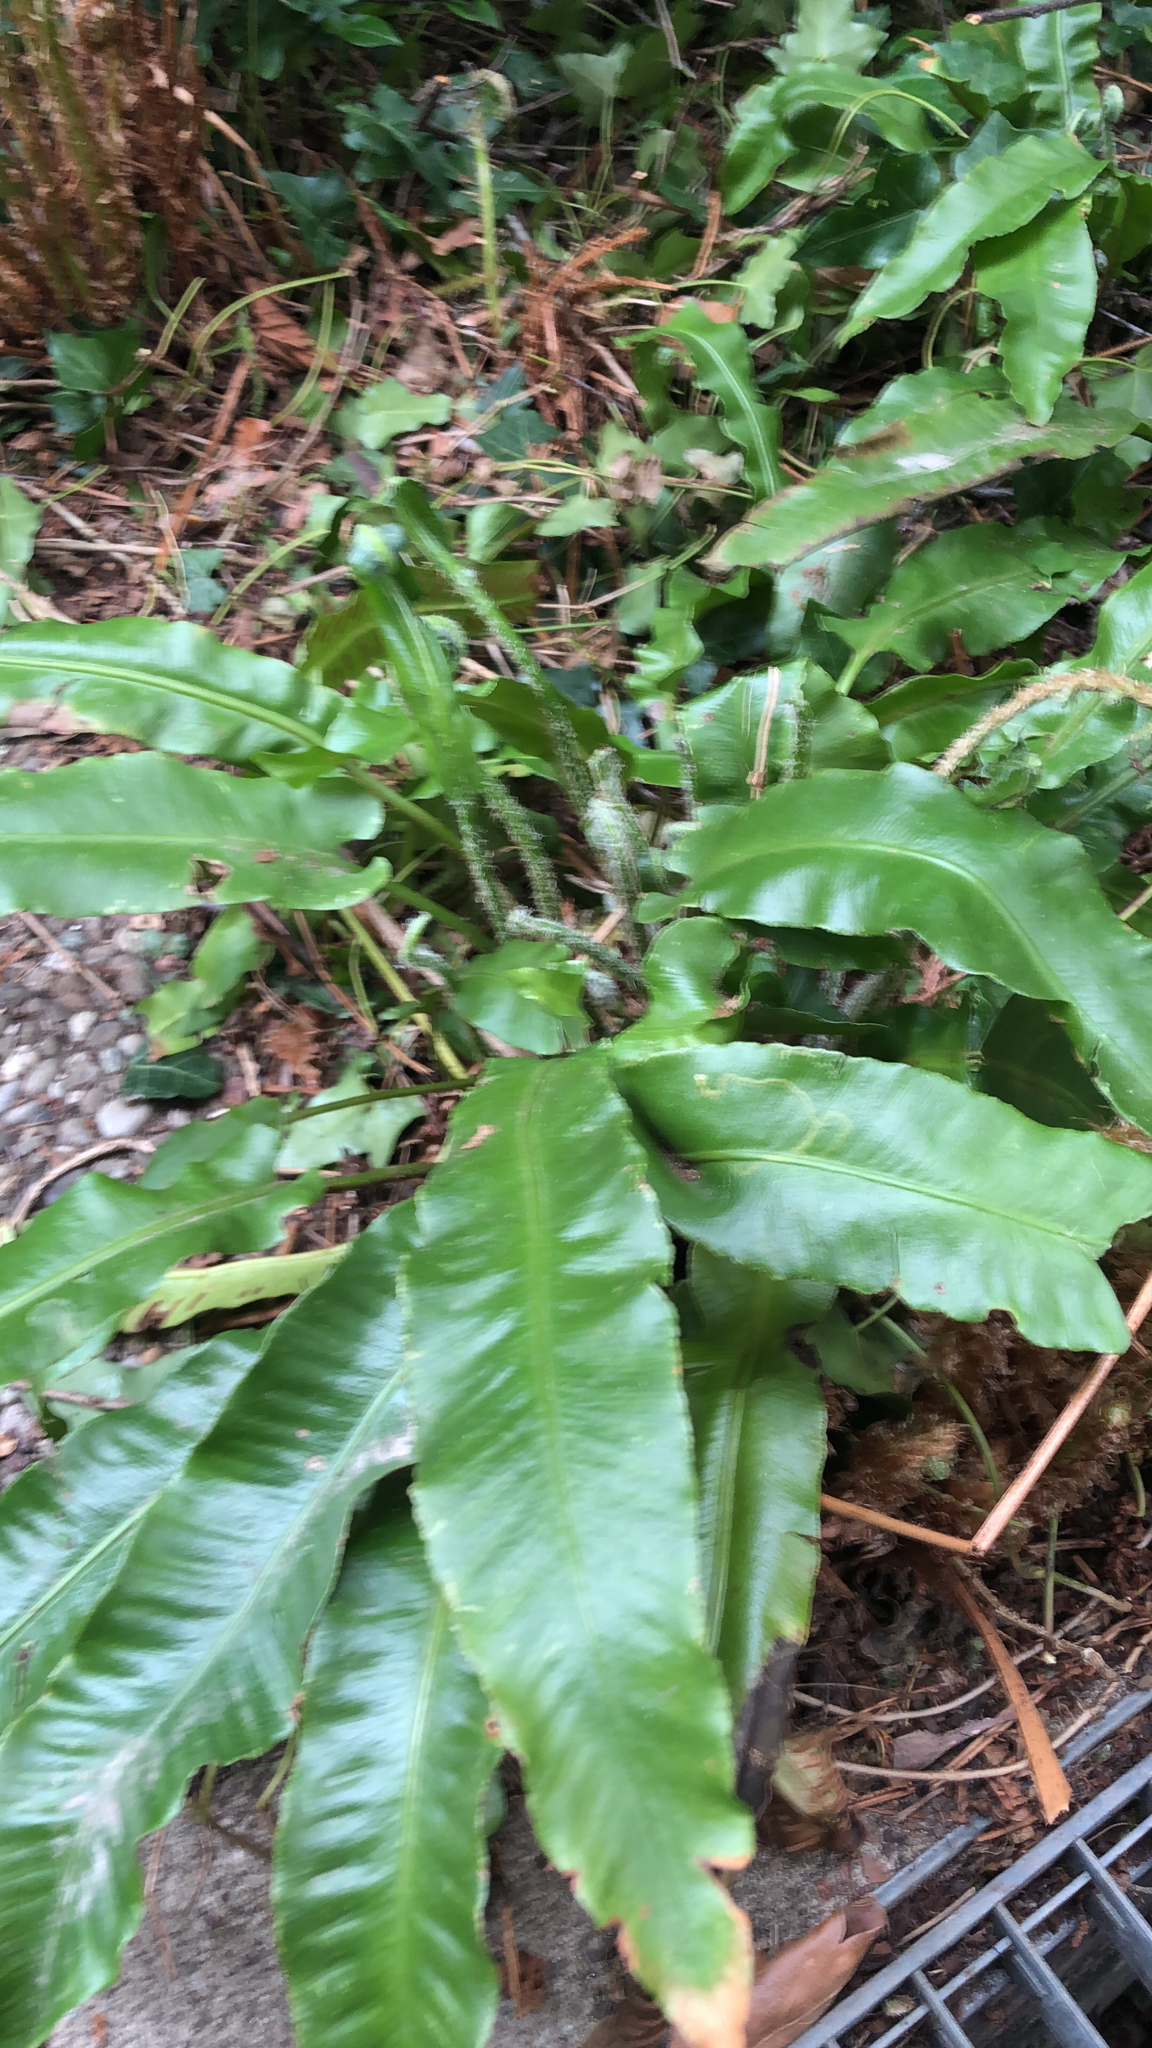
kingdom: Plantae
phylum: Tracheophyta
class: Polypodiopsida
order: Polypodiales
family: Aspleniaceae
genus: Asplenium
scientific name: Asplenium scolopendrium
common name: Hart's-tongue fern
